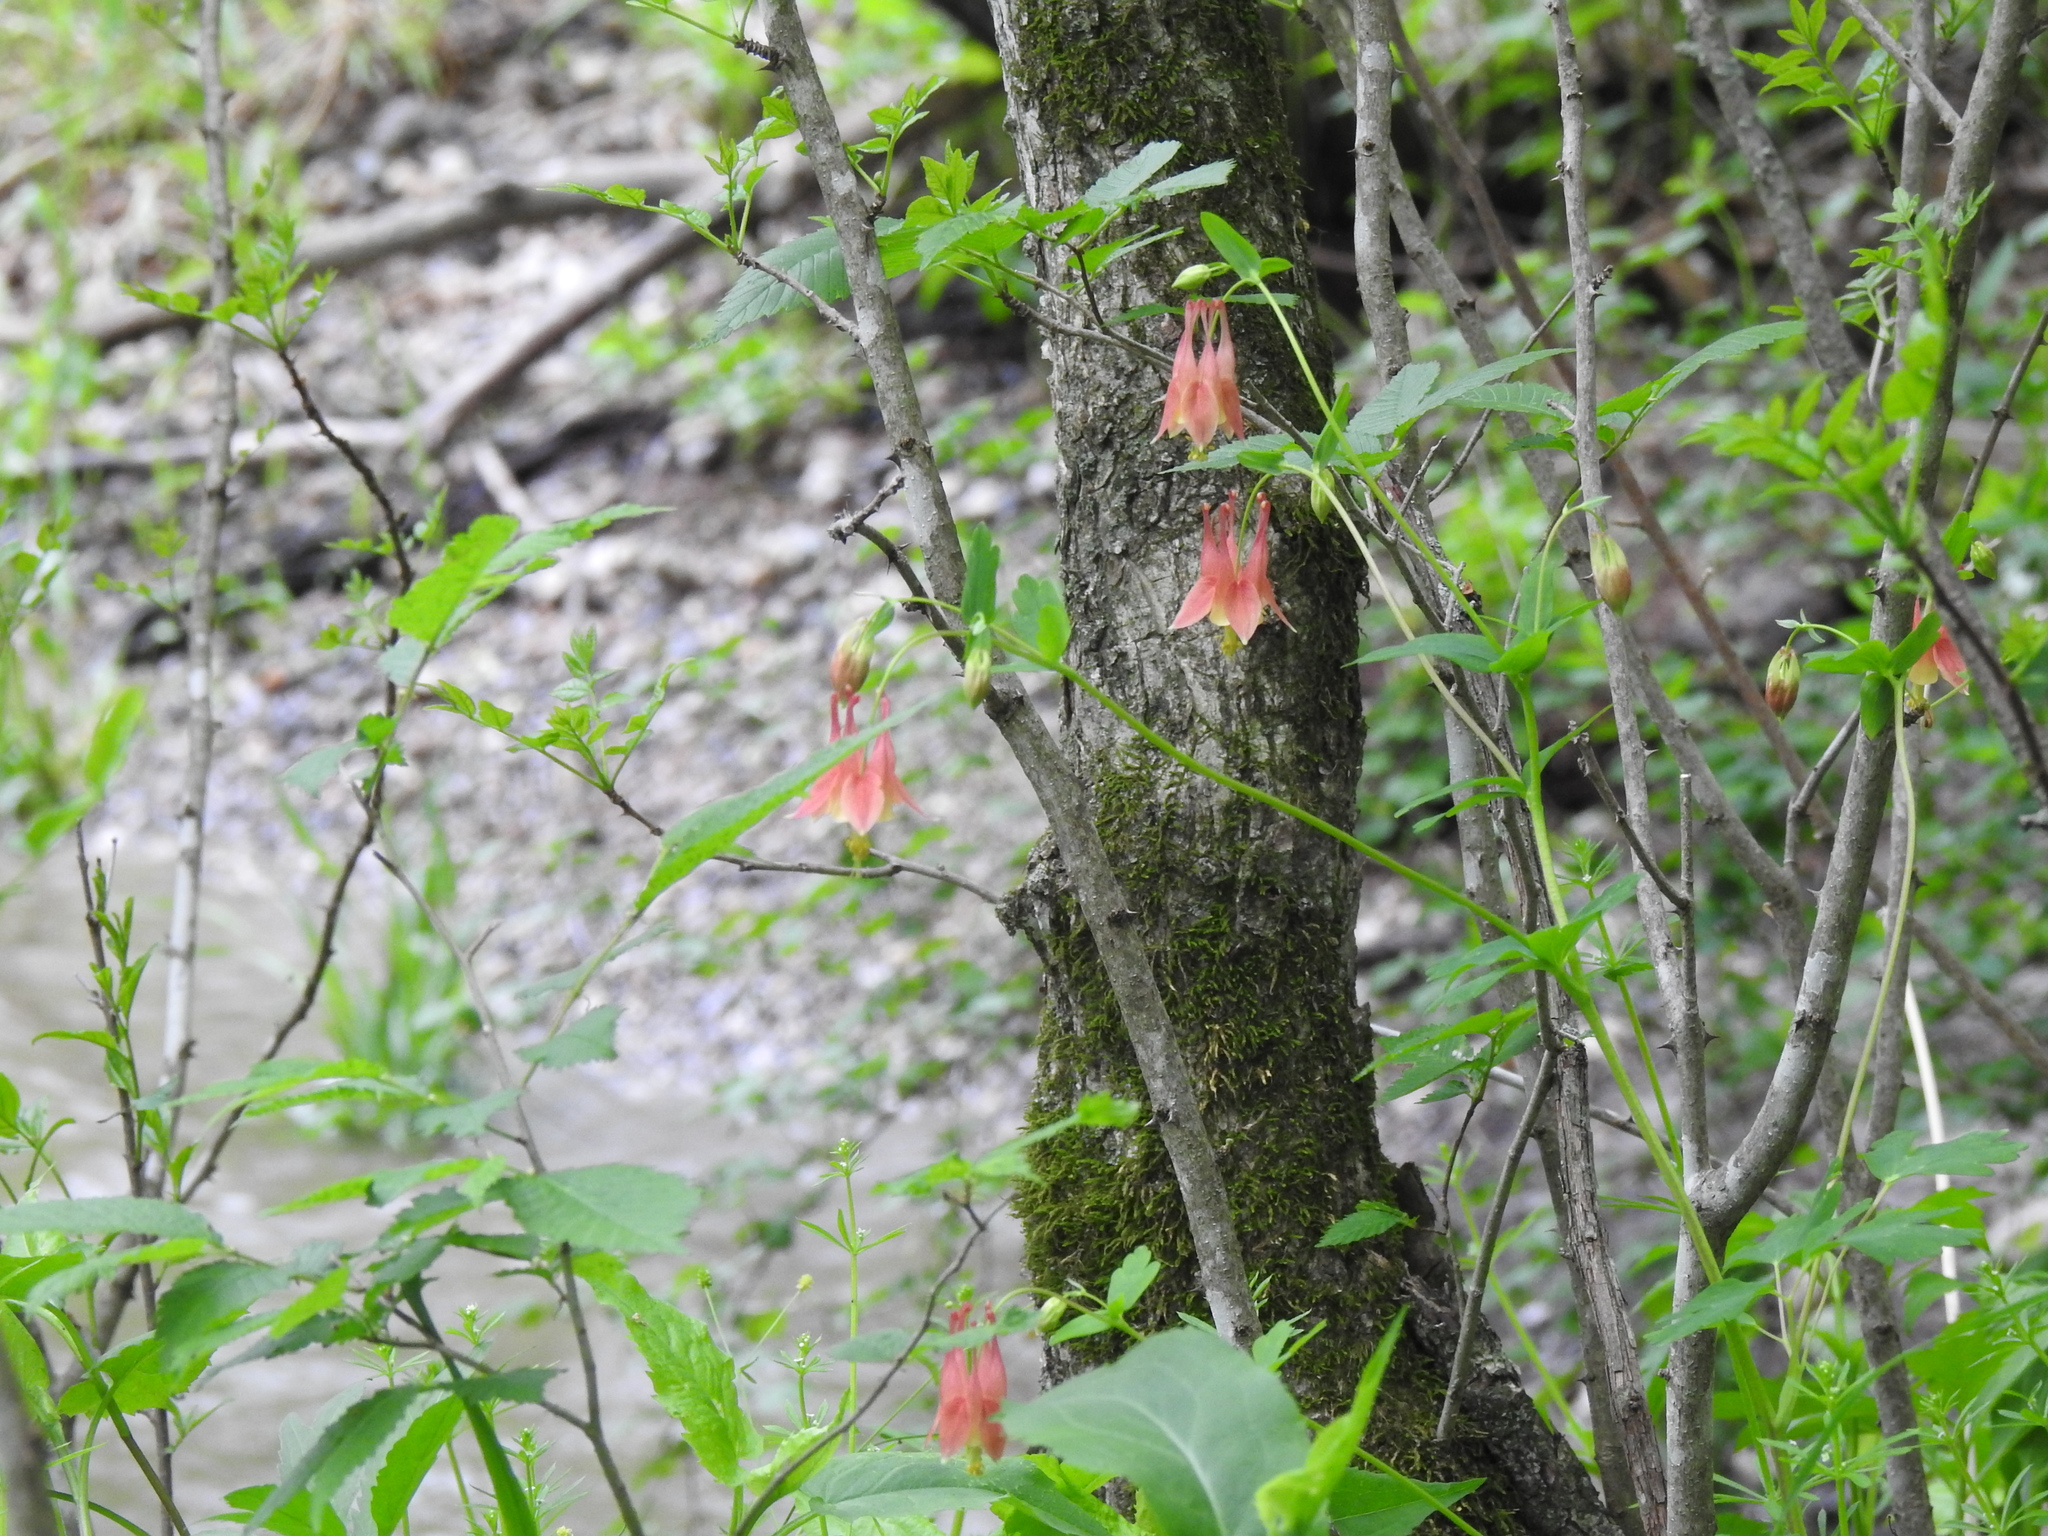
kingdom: Plantae
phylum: Tracheophyta
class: Magnoliopsida
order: Ranunculales
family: Ranunculaceae
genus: Aquilegia
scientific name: Aquilegia canadensis
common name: American columbine
